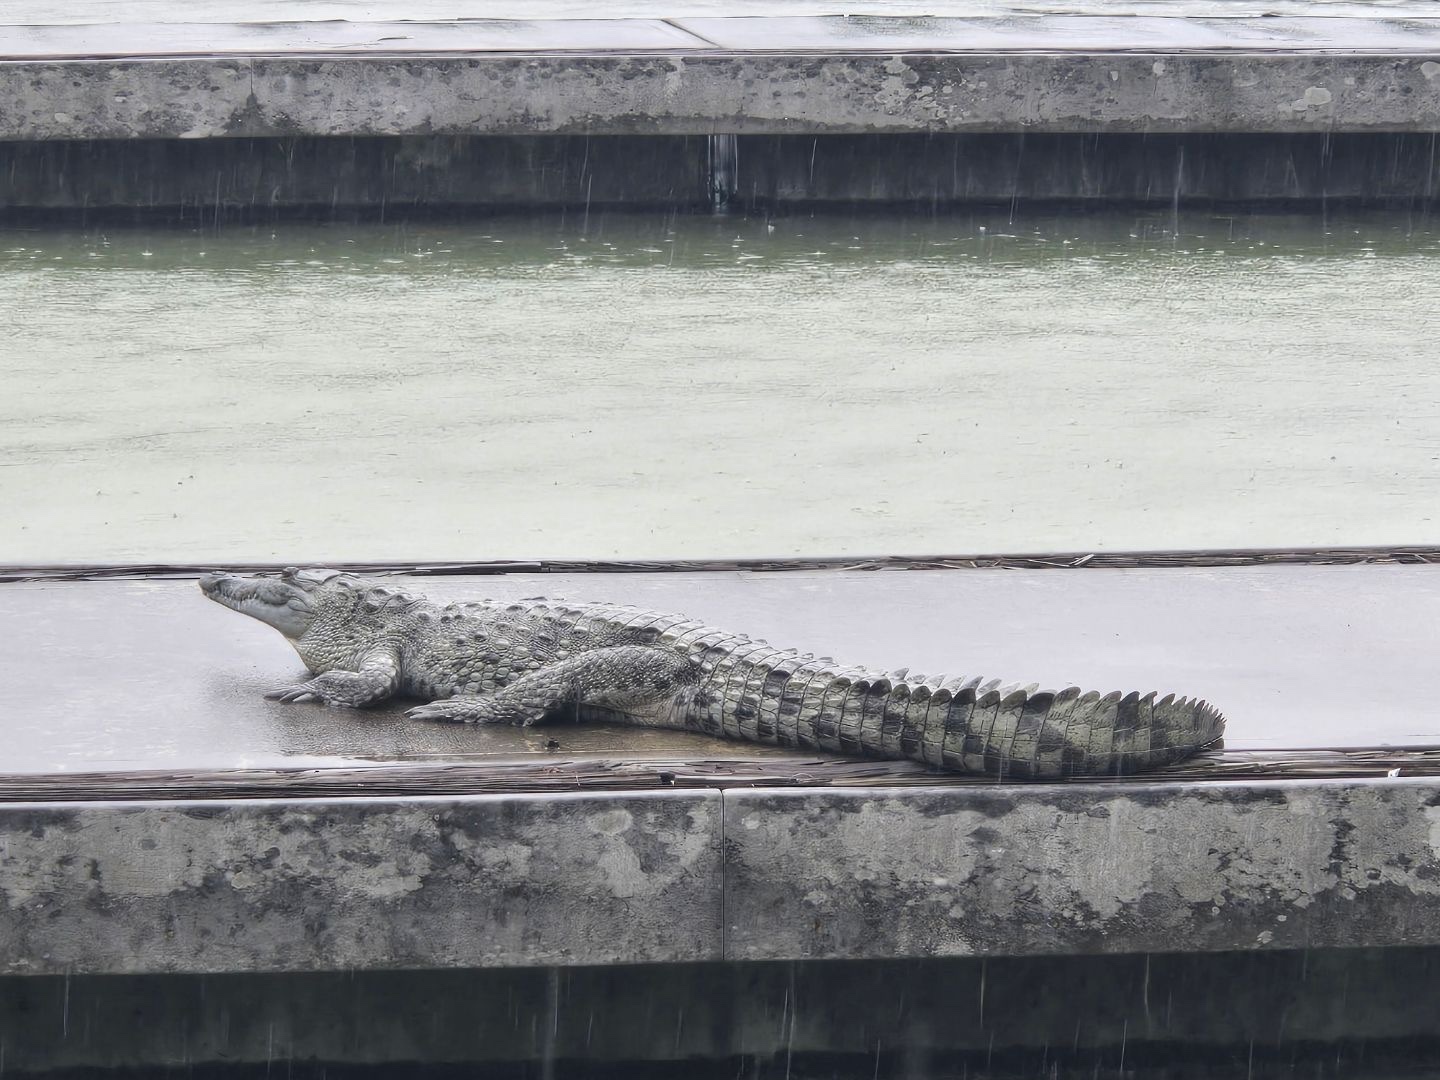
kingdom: Animalia
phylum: Chordata
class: Crocodylia
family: Crocodylidae
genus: Crocodylus
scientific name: Crocodylus acutus
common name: American crocodile
